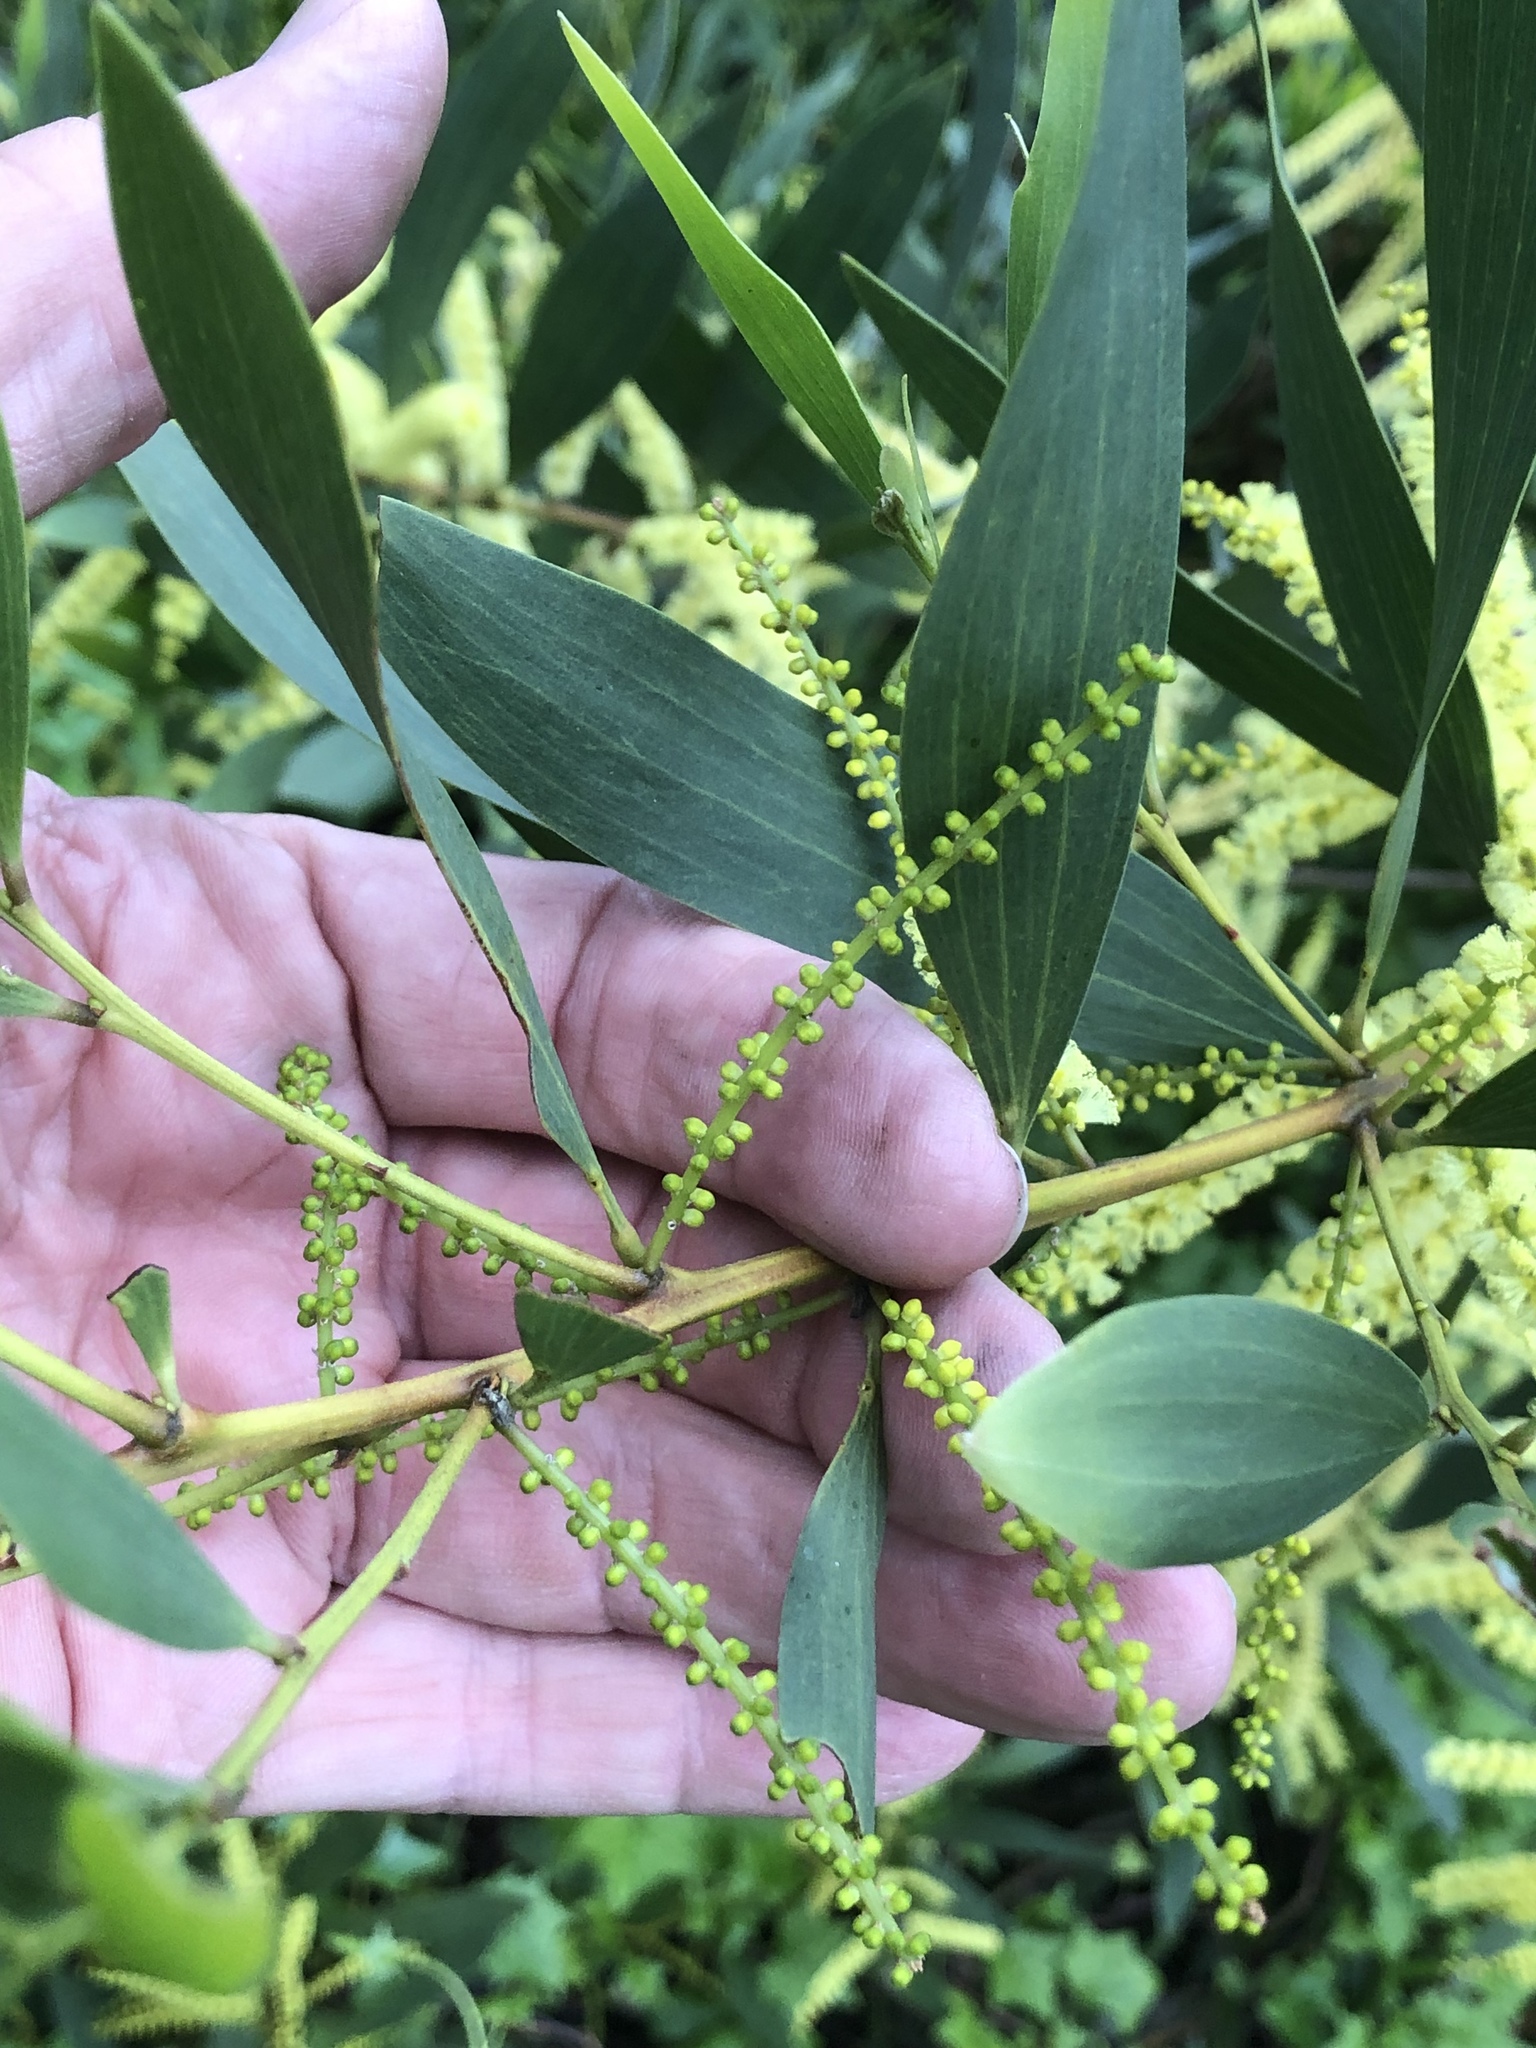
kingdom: Plantae
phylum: Tracheophyta
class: Magnoliopsida
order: Fabales
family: Fabaceae
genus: Acacia
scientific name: Acacia longifolia
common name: Sydney golden wattle
